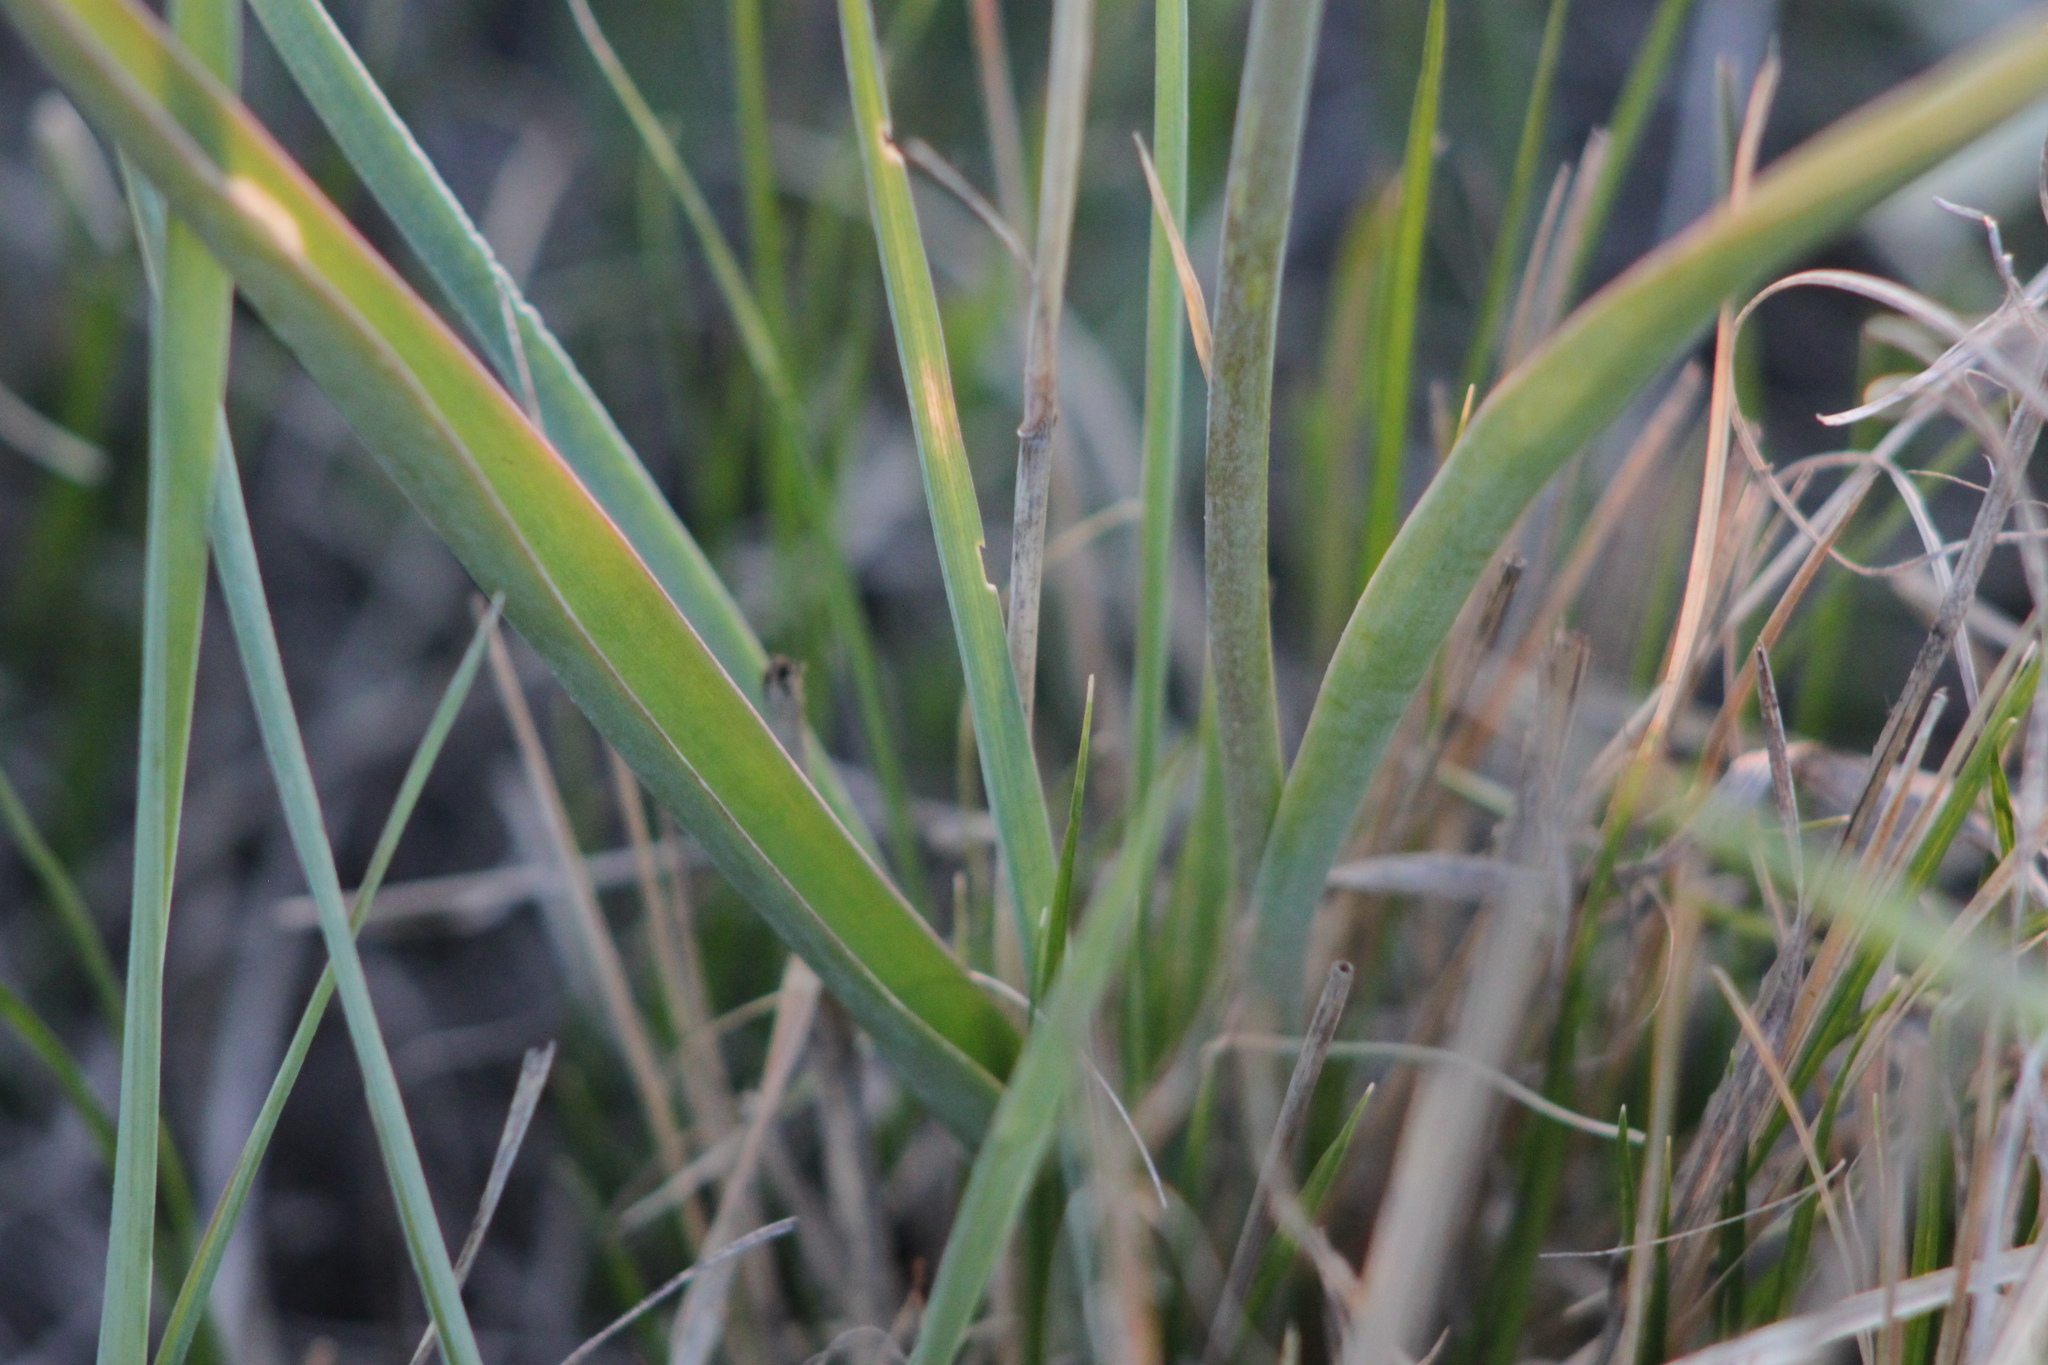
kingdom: Plantae
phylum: Tracheophyta
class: Liliopsida
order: Liliales
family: Liliaceae
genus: Tulipa
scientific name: Tulipa patens
